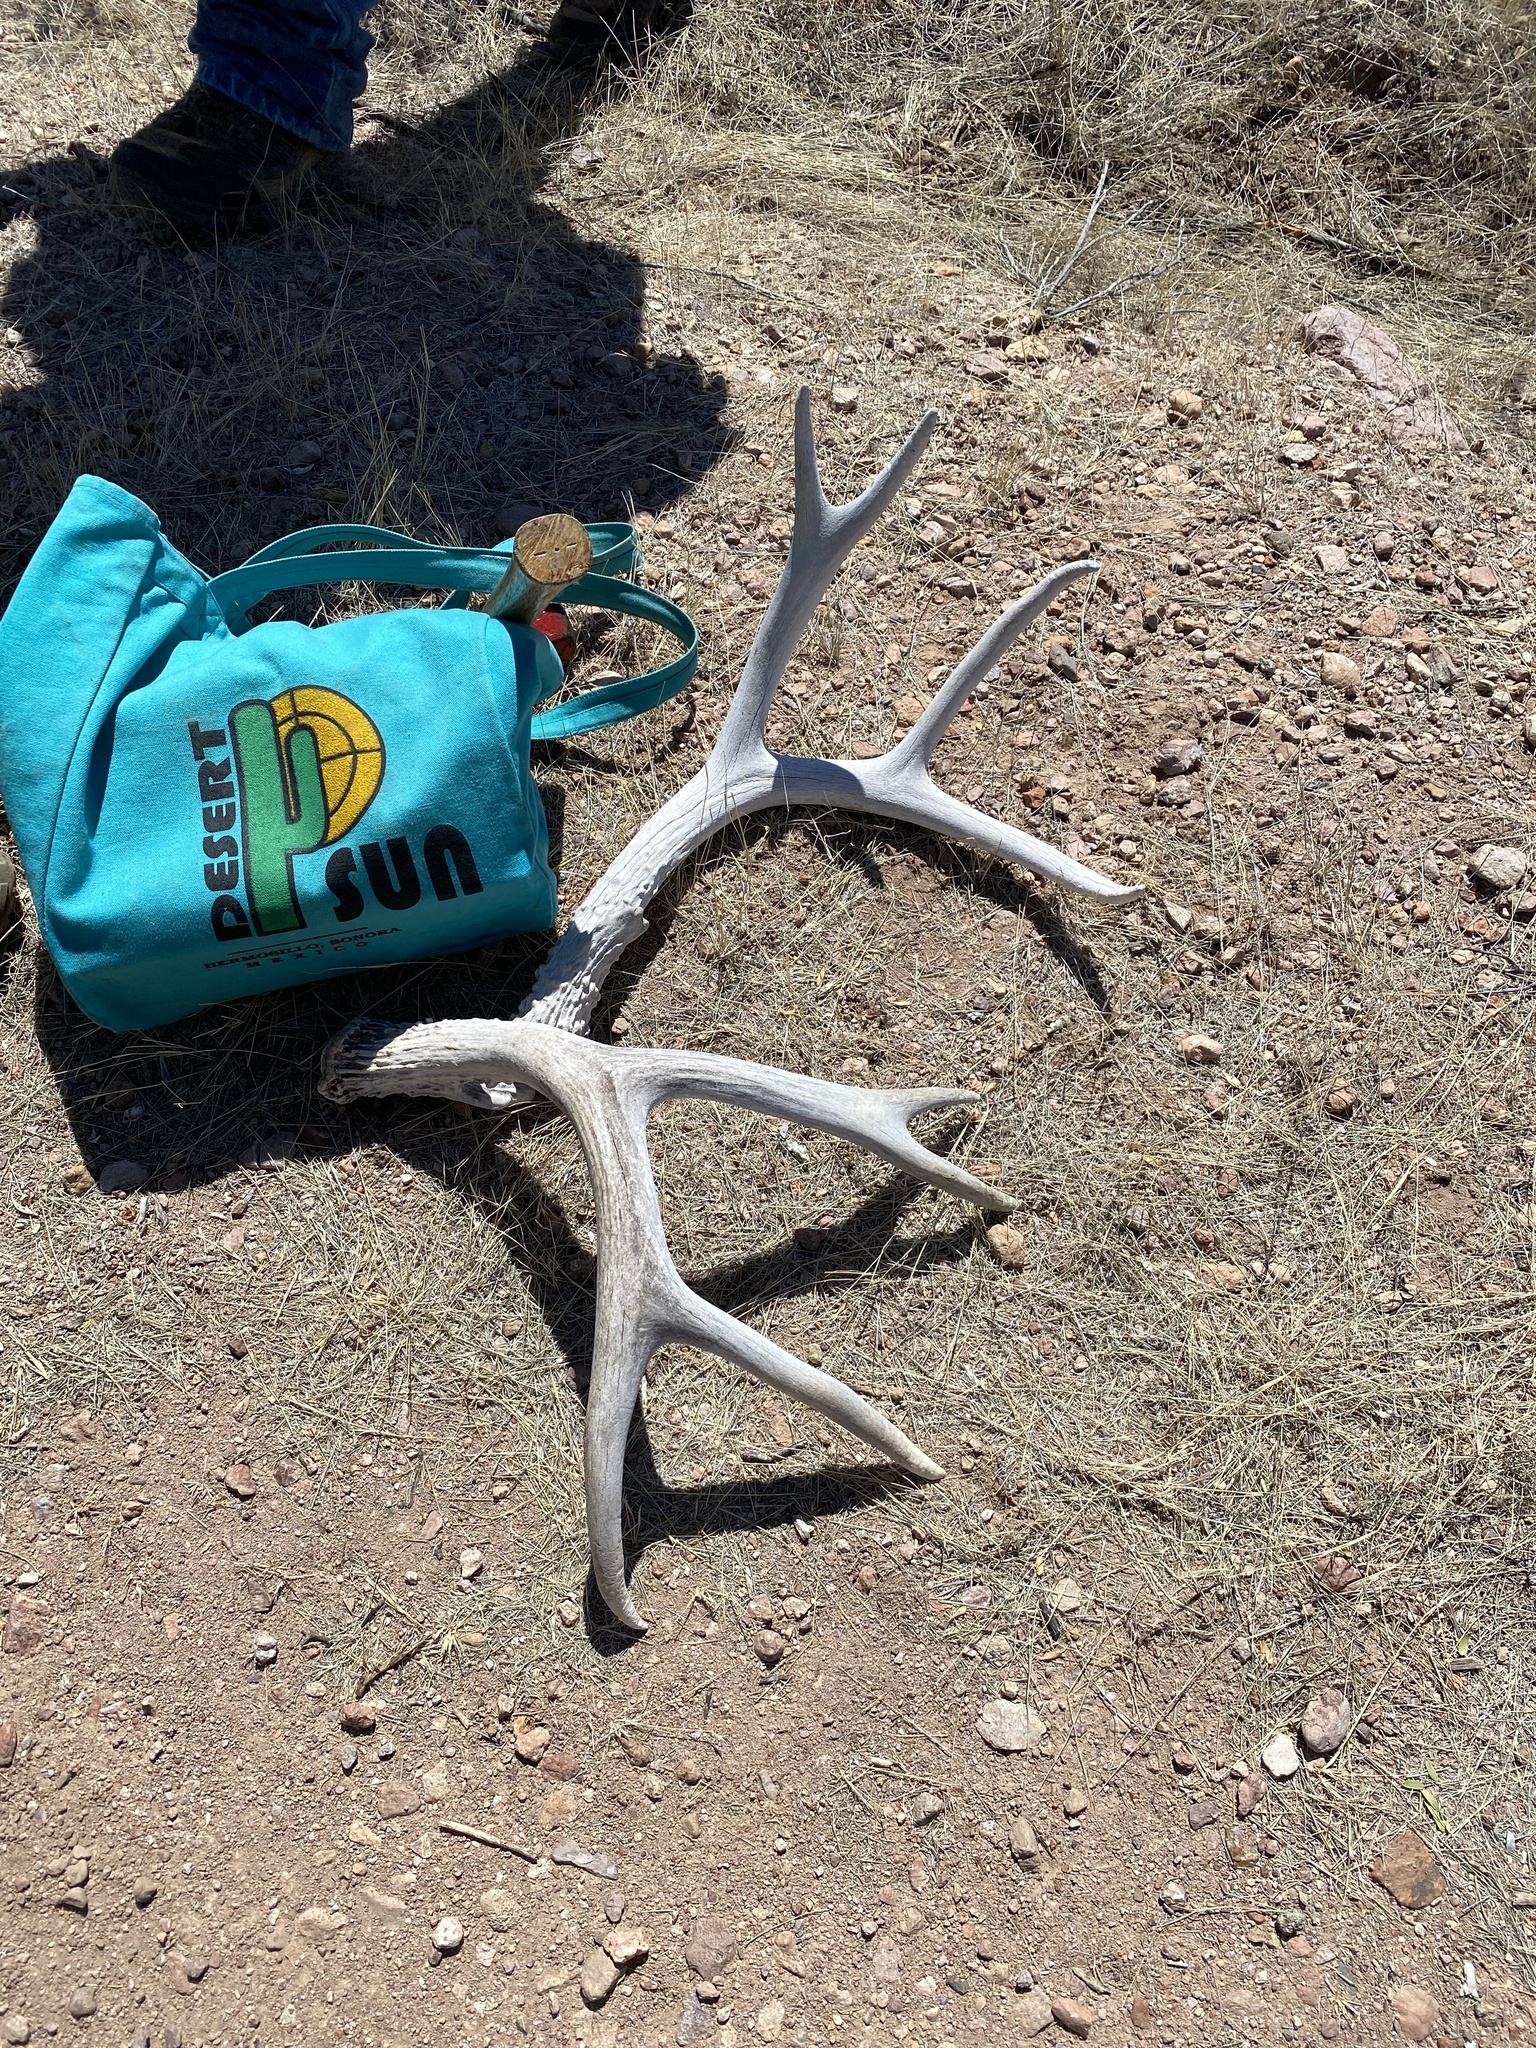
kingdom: Animalia
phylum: Chordata
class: Mammalia
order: Artiodactyla
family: Cervidae
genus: Odocoileus
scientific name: Odocoileus hemionus
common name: Mule deer
